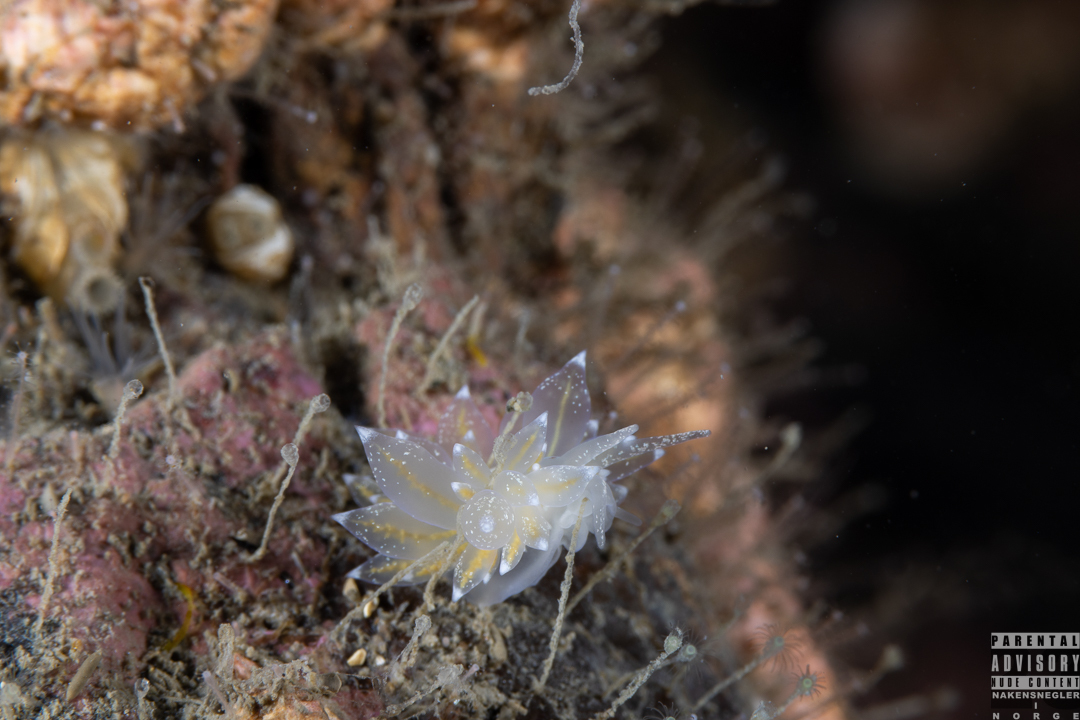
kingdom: Animalia
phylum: Mollusca
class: Gastropoda
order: Nudibranchia
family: Eubranchidae
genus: Amphorina
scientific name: Amphorina pallida
